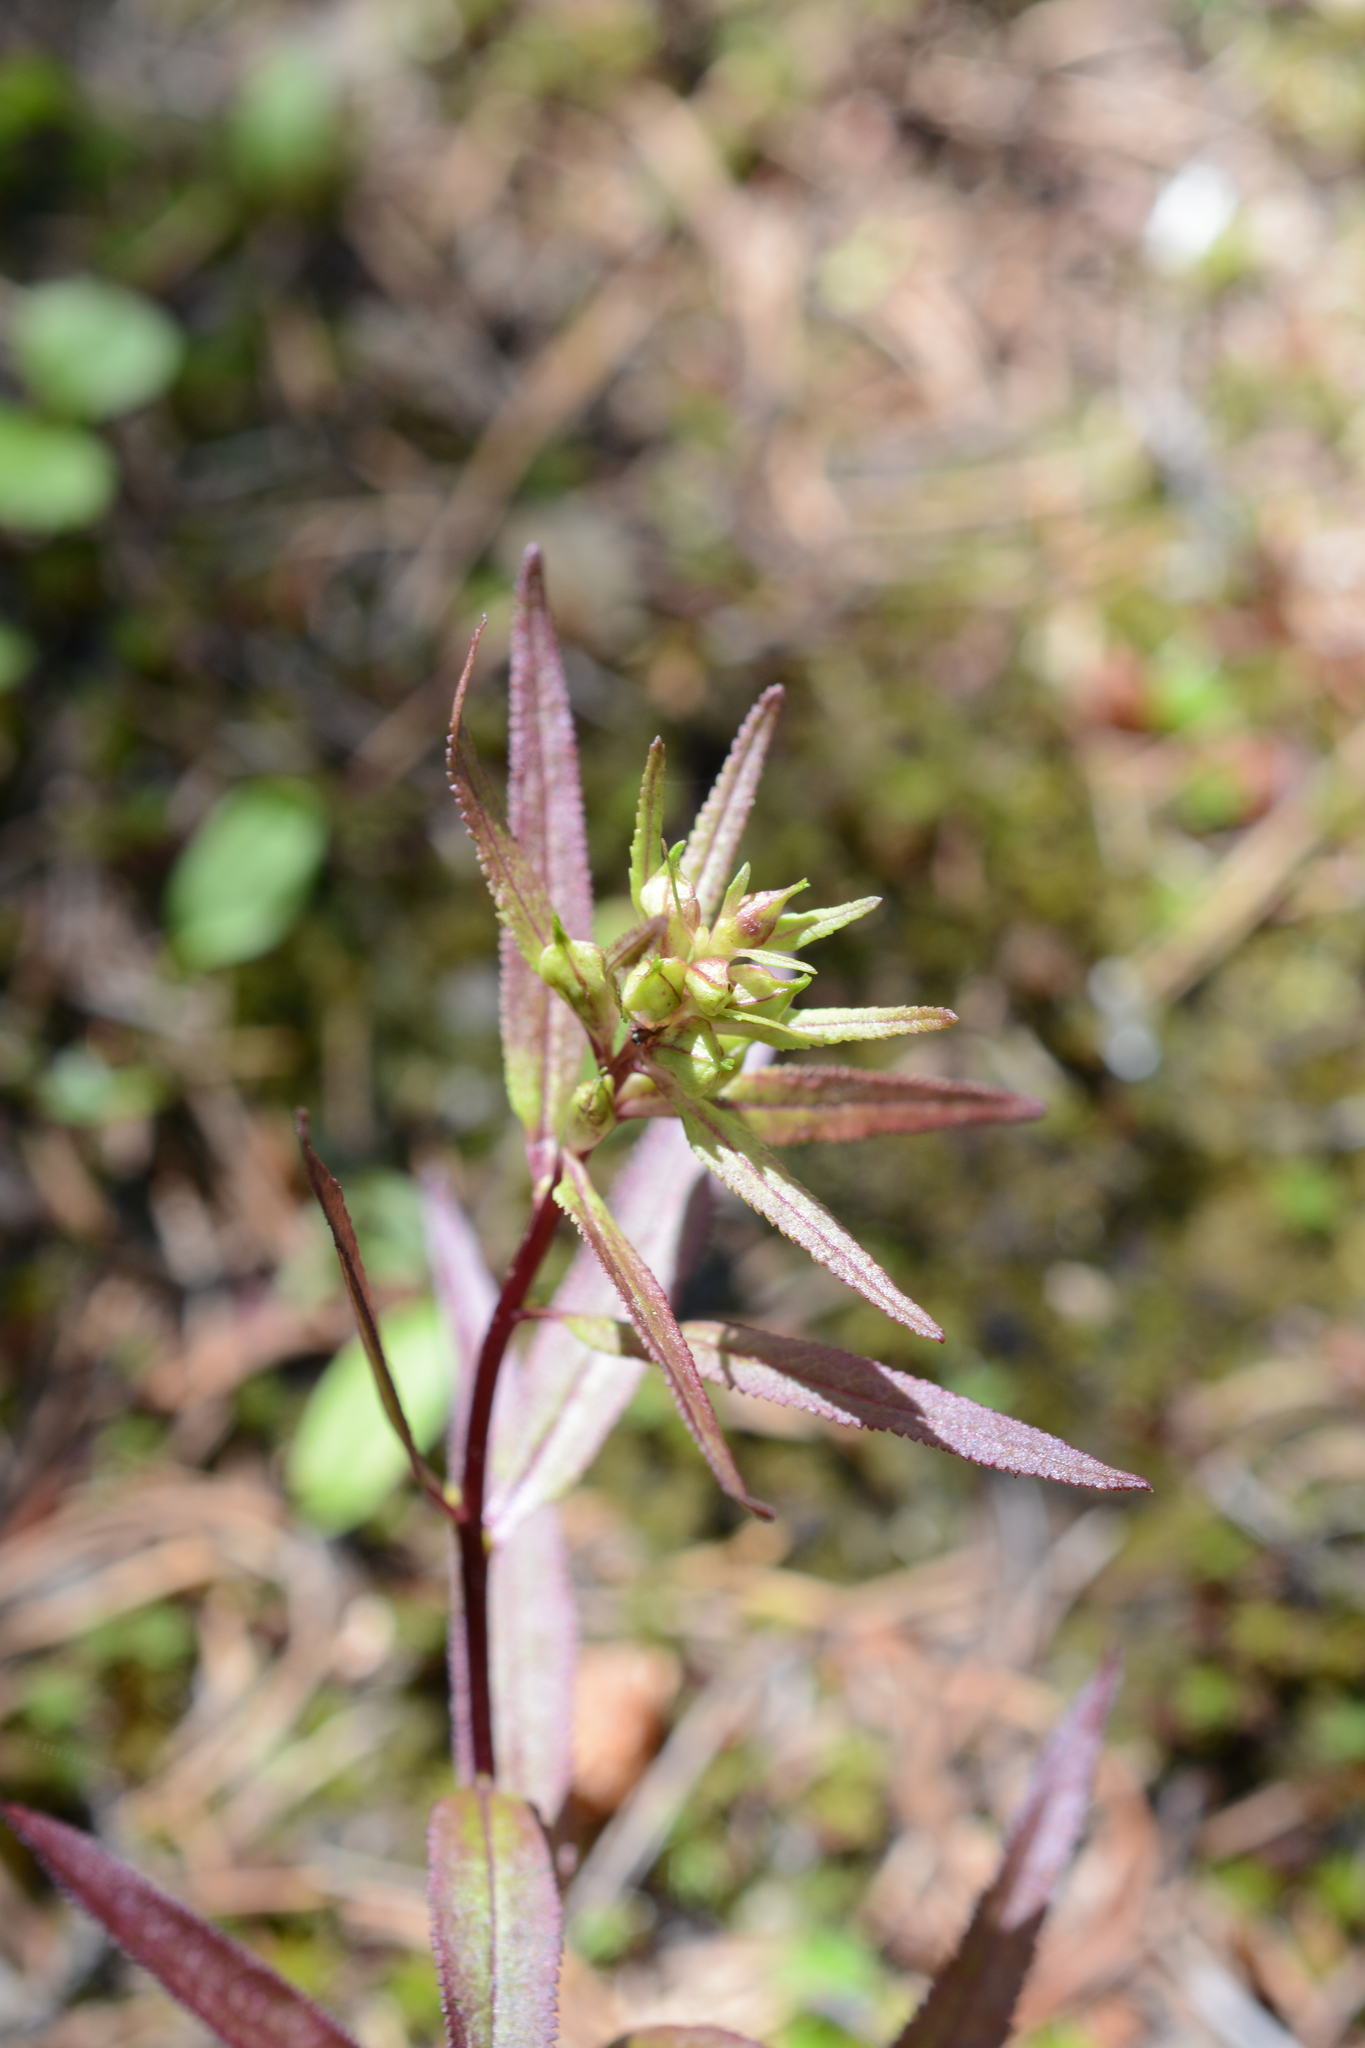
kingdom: Plantae
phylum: Tracheophyta
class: Magnoliopsida
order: Lamiales
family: Orobanchaceae
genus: Pedicularis
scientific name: Pedicularis racemosa
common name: Leafy lousewort
